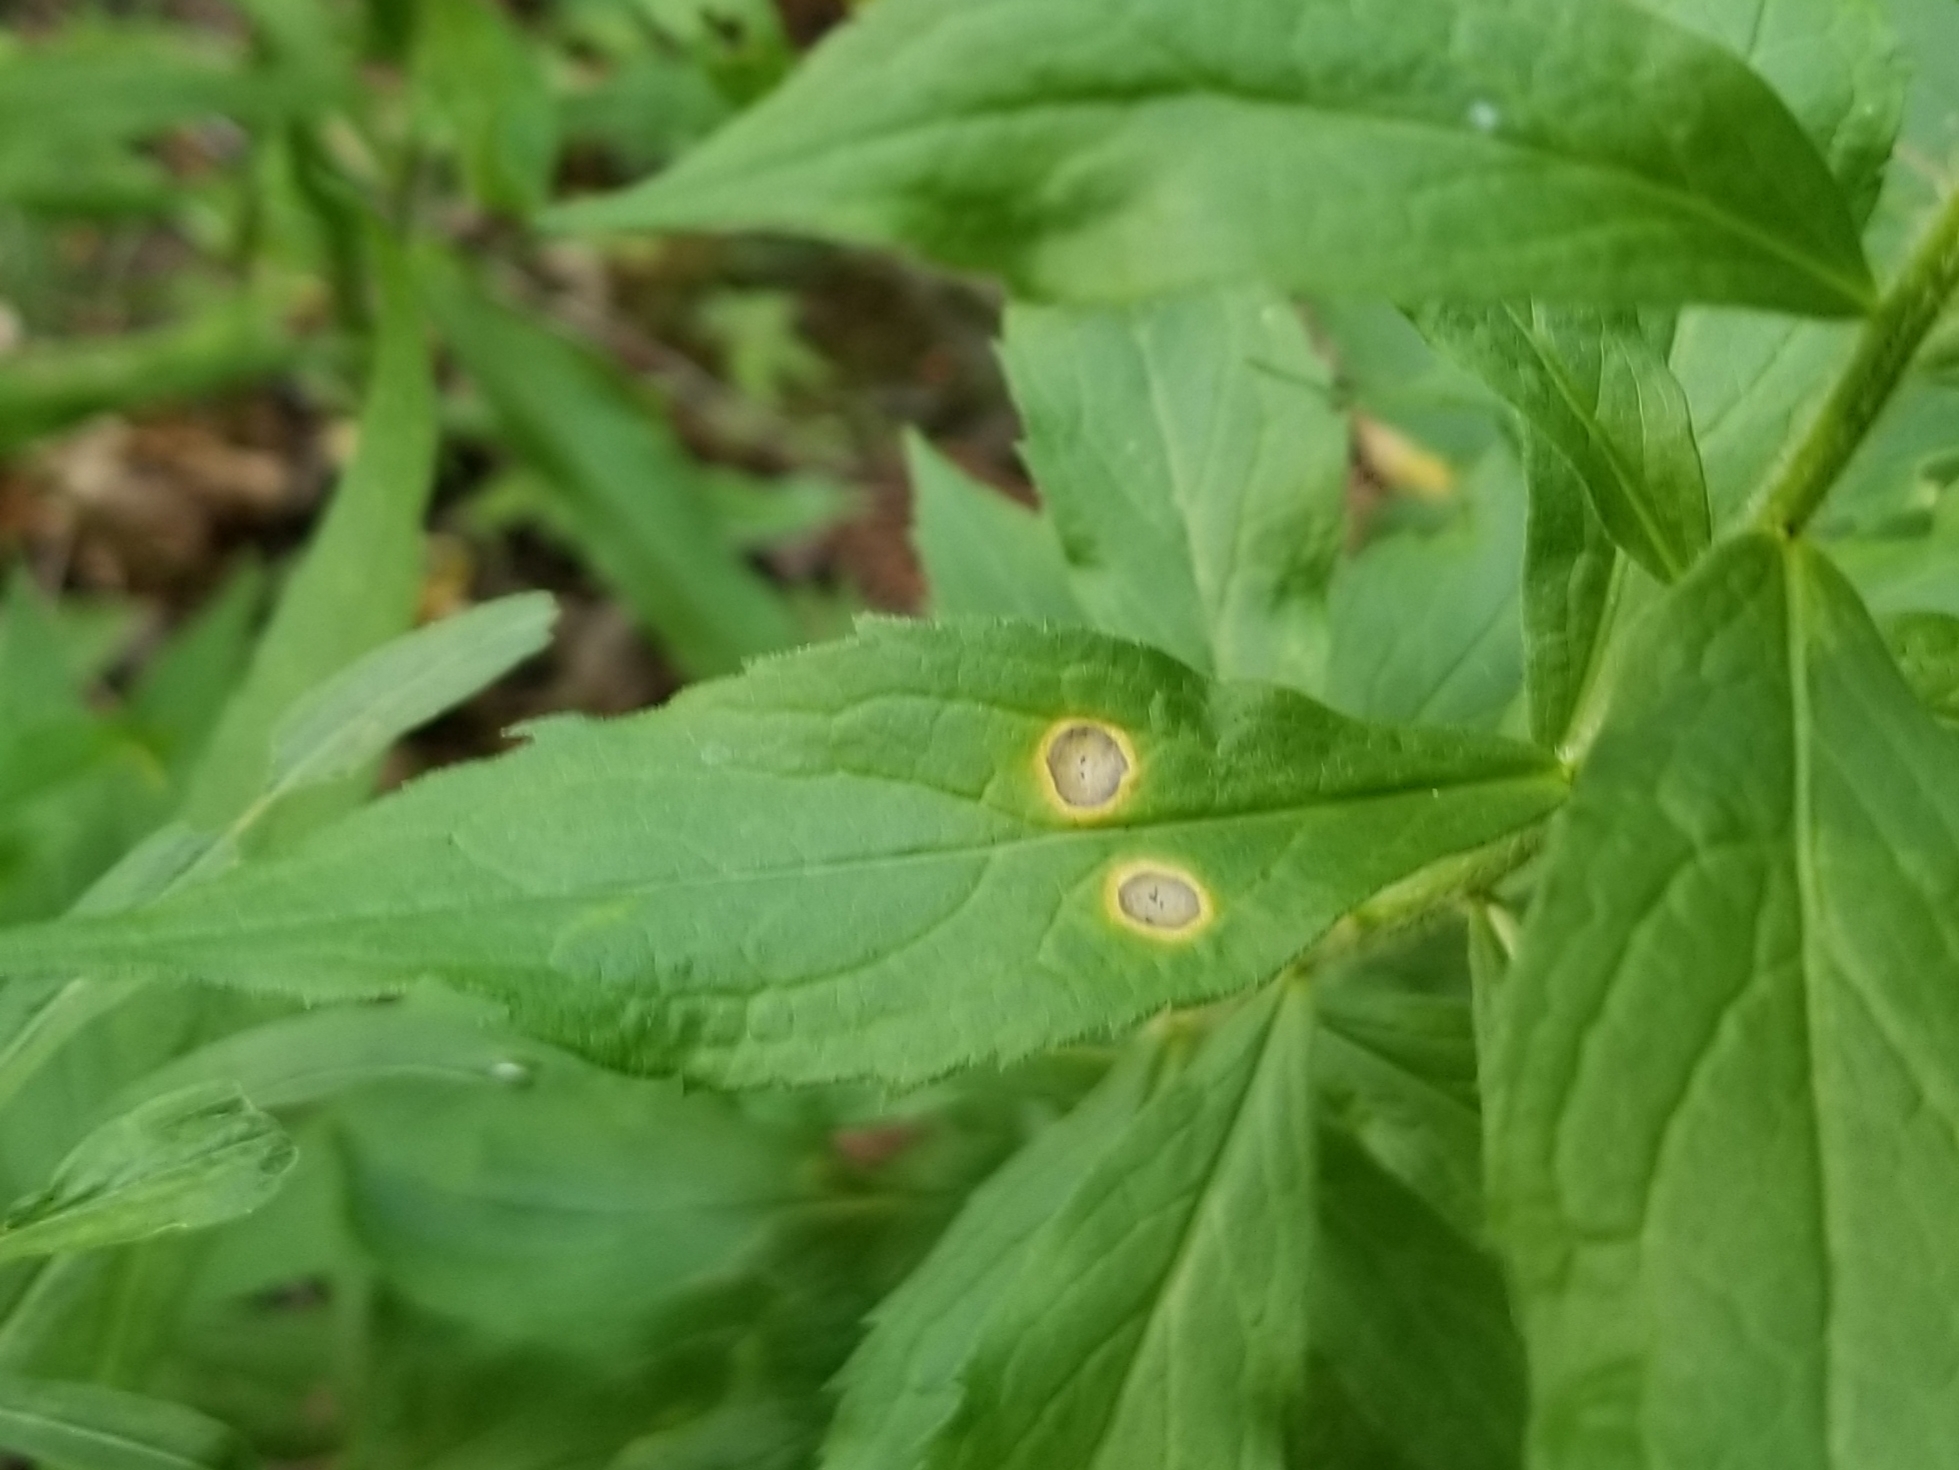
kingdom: Animalia
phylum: Arthropoda
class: Insecta
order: Diptera
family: Cecidomyiidae
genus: Asteromyia
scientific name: Asteromyia carbonifera
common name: Carbonifera goldenrod gall midge
